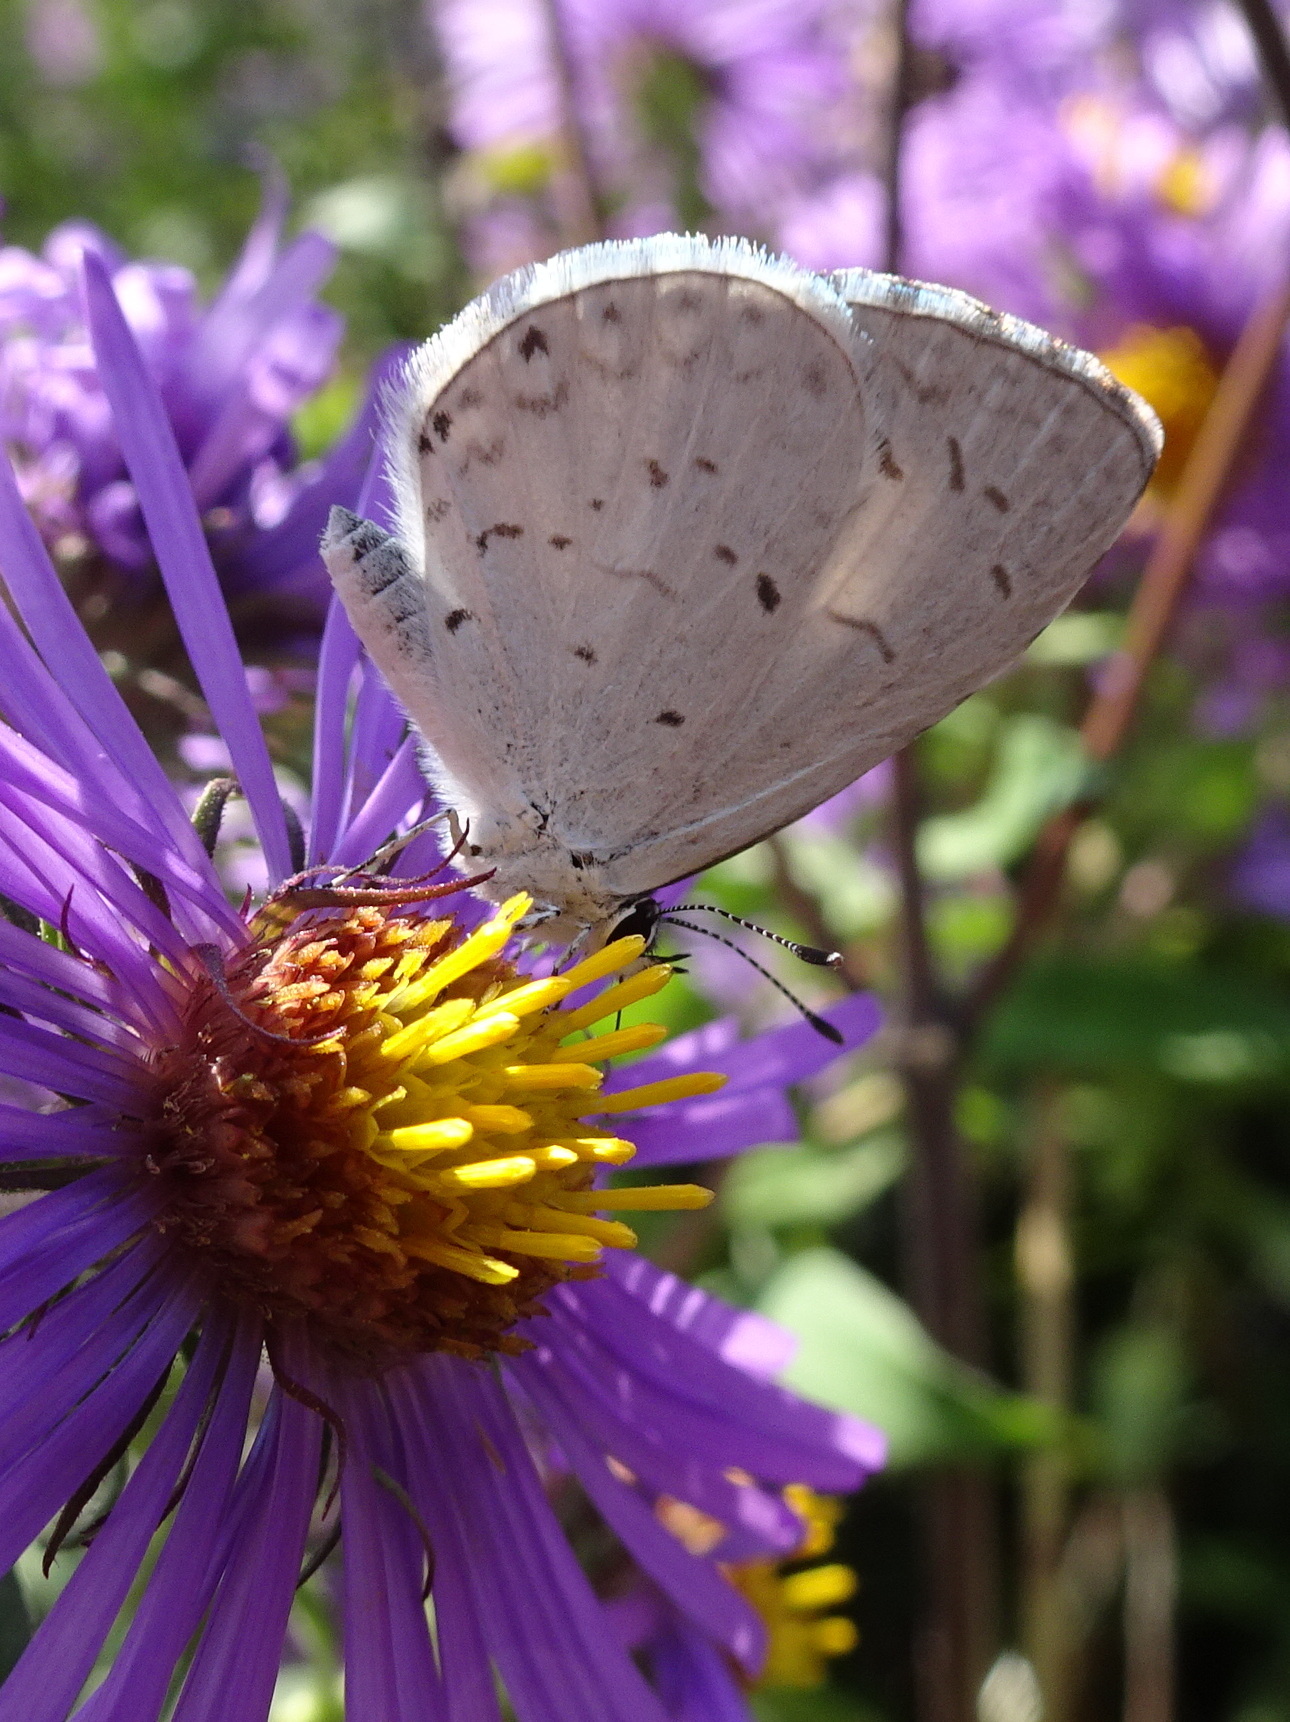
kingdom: Animalia
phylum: Arthropoda
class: Insecta
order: Lepidoptera
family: Lycaenidae
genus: Cyaniris
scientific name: Cyaniris neglecta
